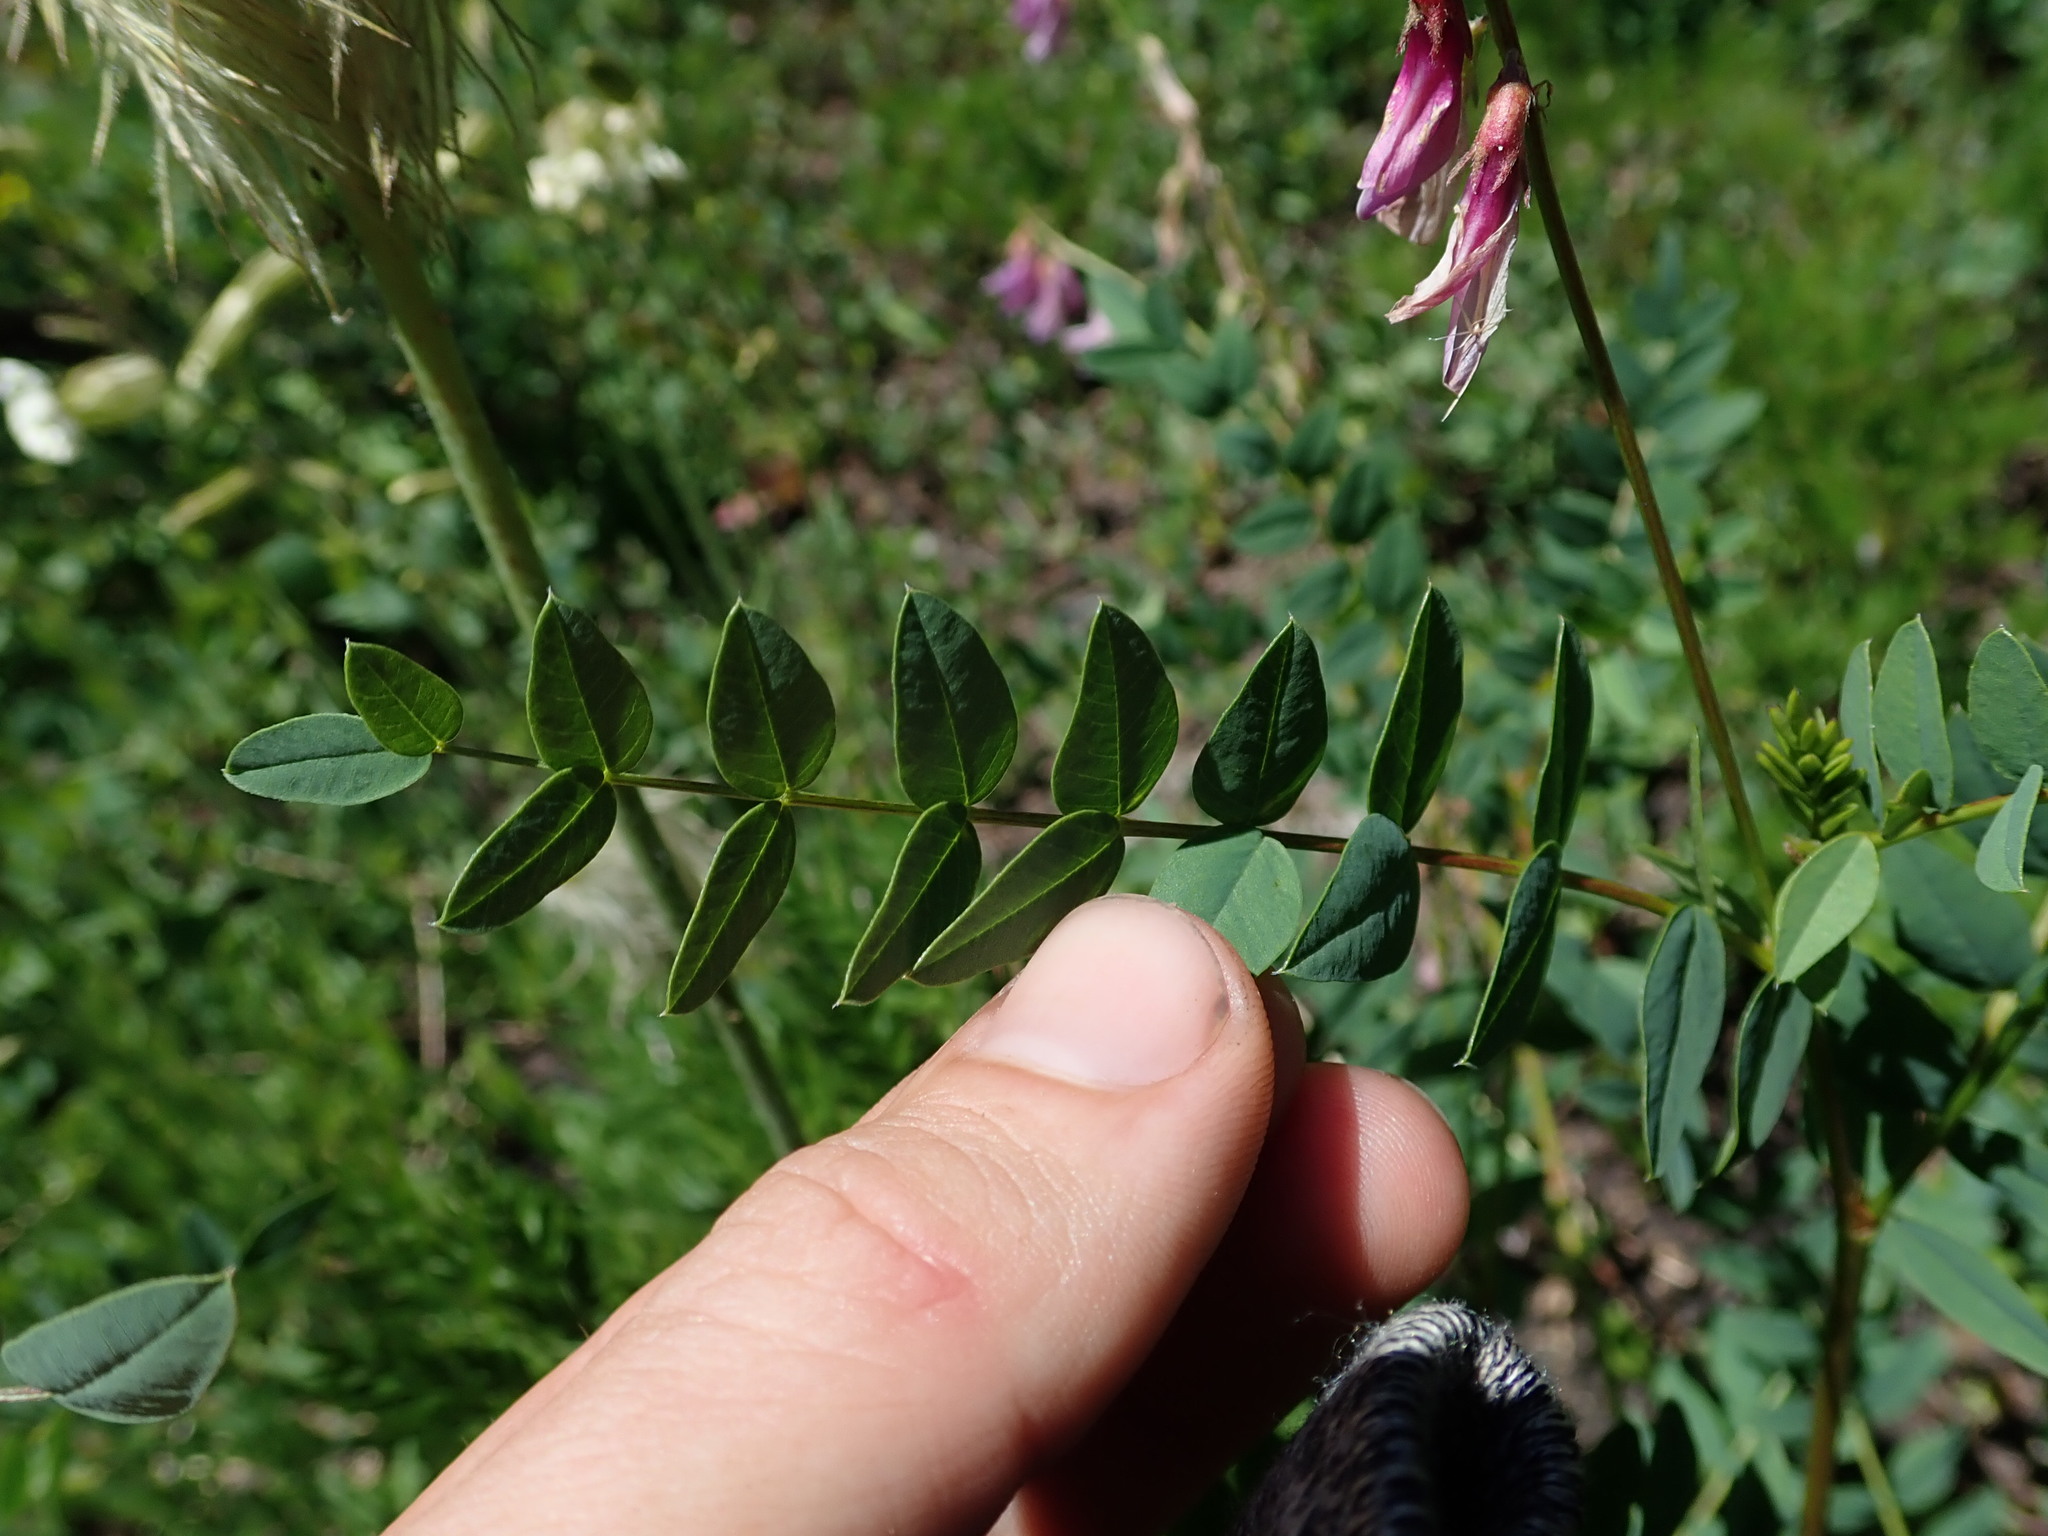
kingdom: Plantae
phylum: Tracheophyta
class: Magnoliopsida
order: Fabales
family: Fabaceae
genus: Hedysarum
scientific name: Hedysarum occidentale
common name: Western hedysarum
